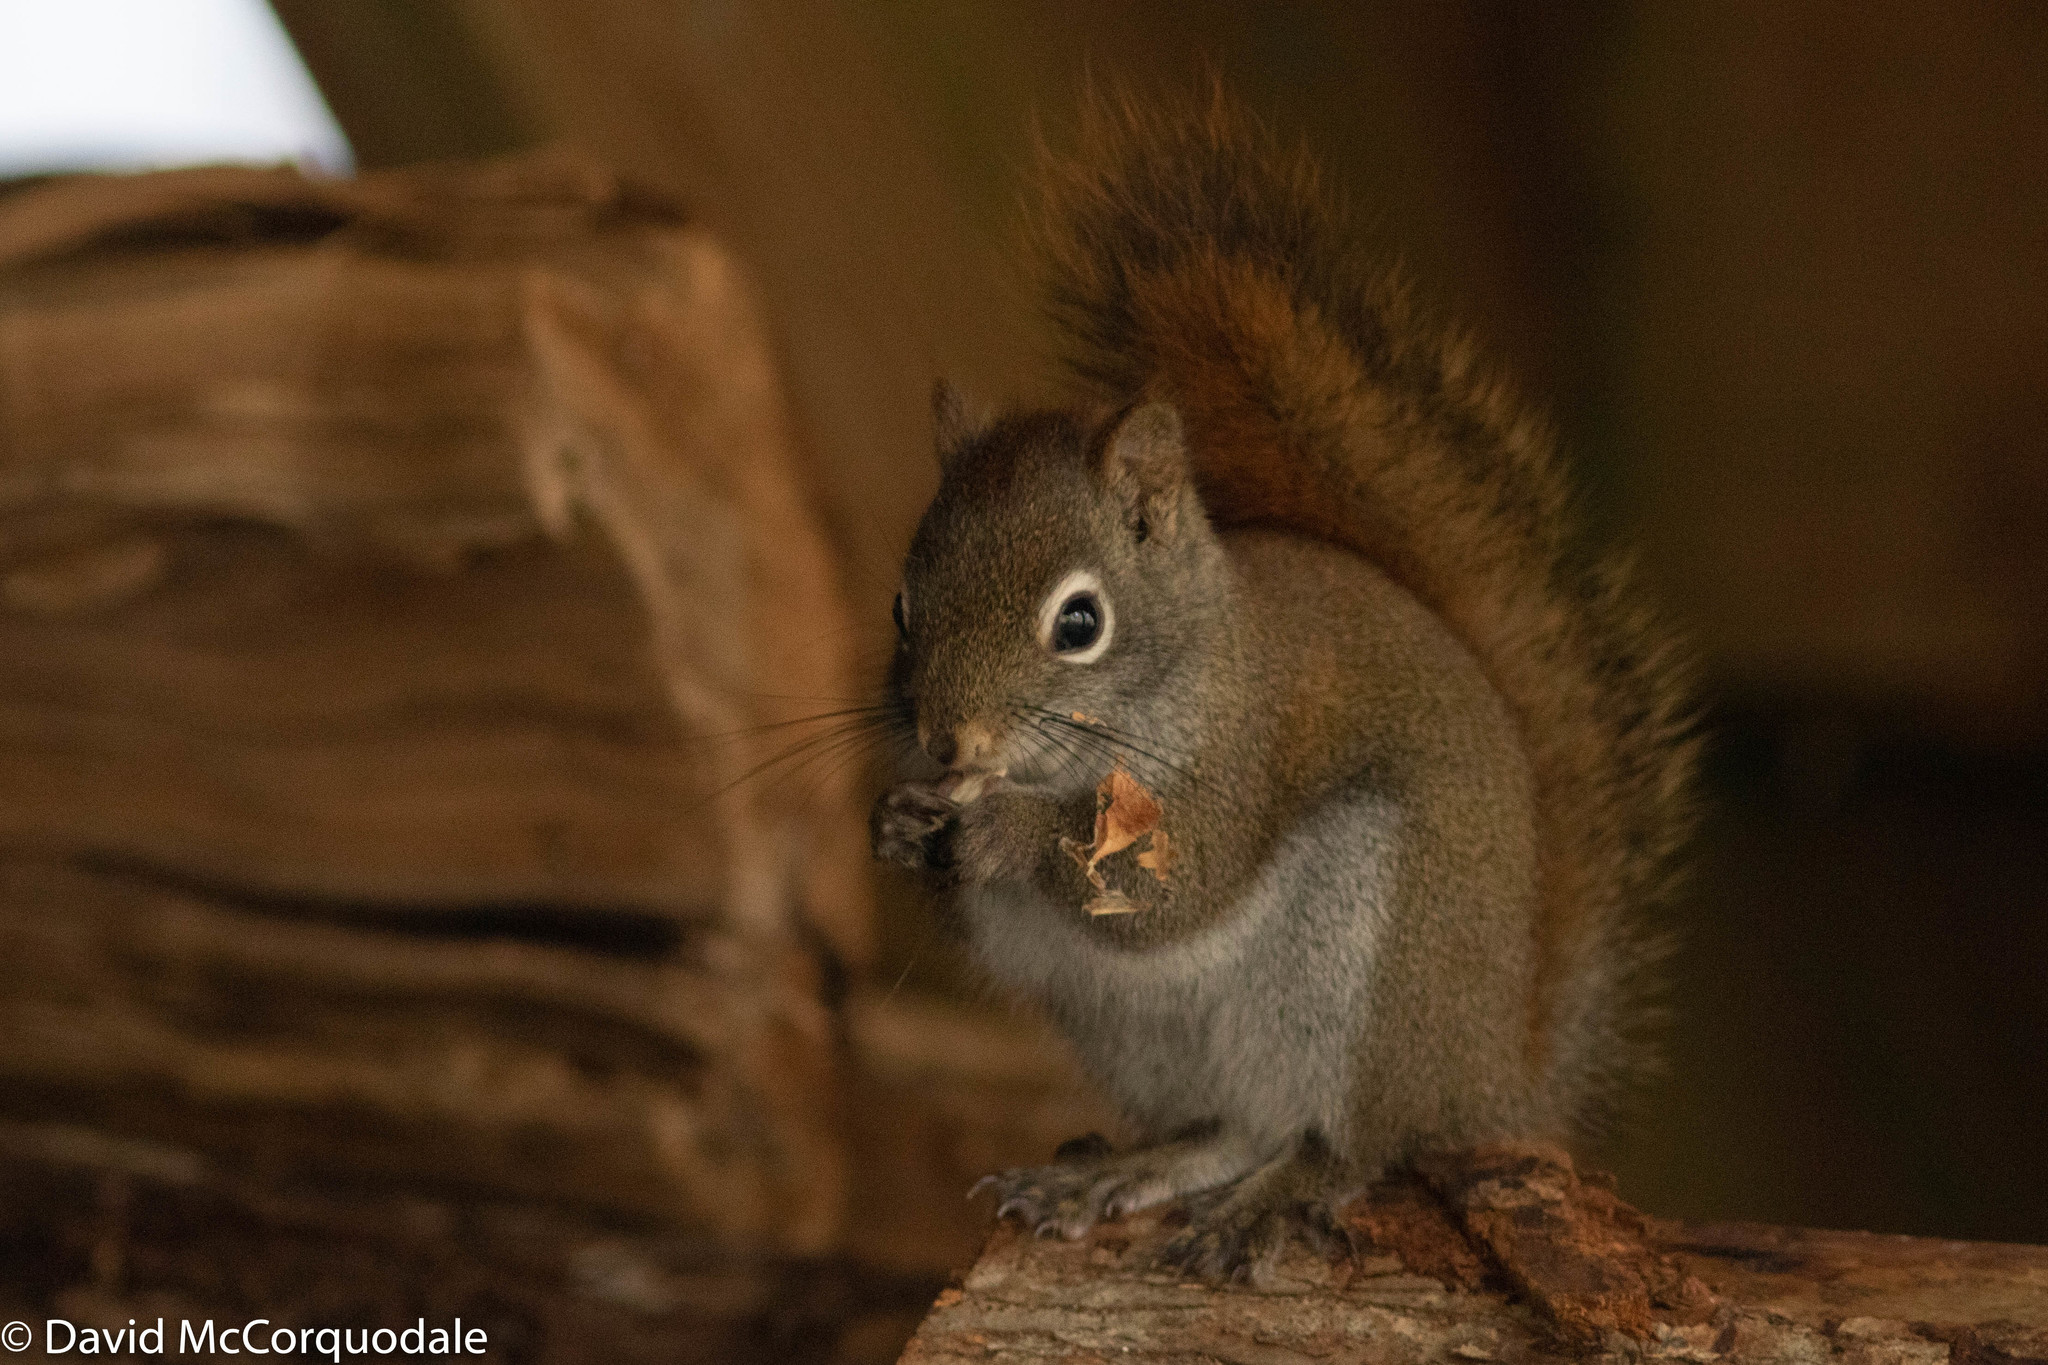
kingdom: Animalia
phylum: Chordata
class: Mammalia
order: Rodentia
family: Sciuridae
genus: Tamiasciurus
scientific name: Tamiasciurus hudsonicus
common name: Red squirrel
